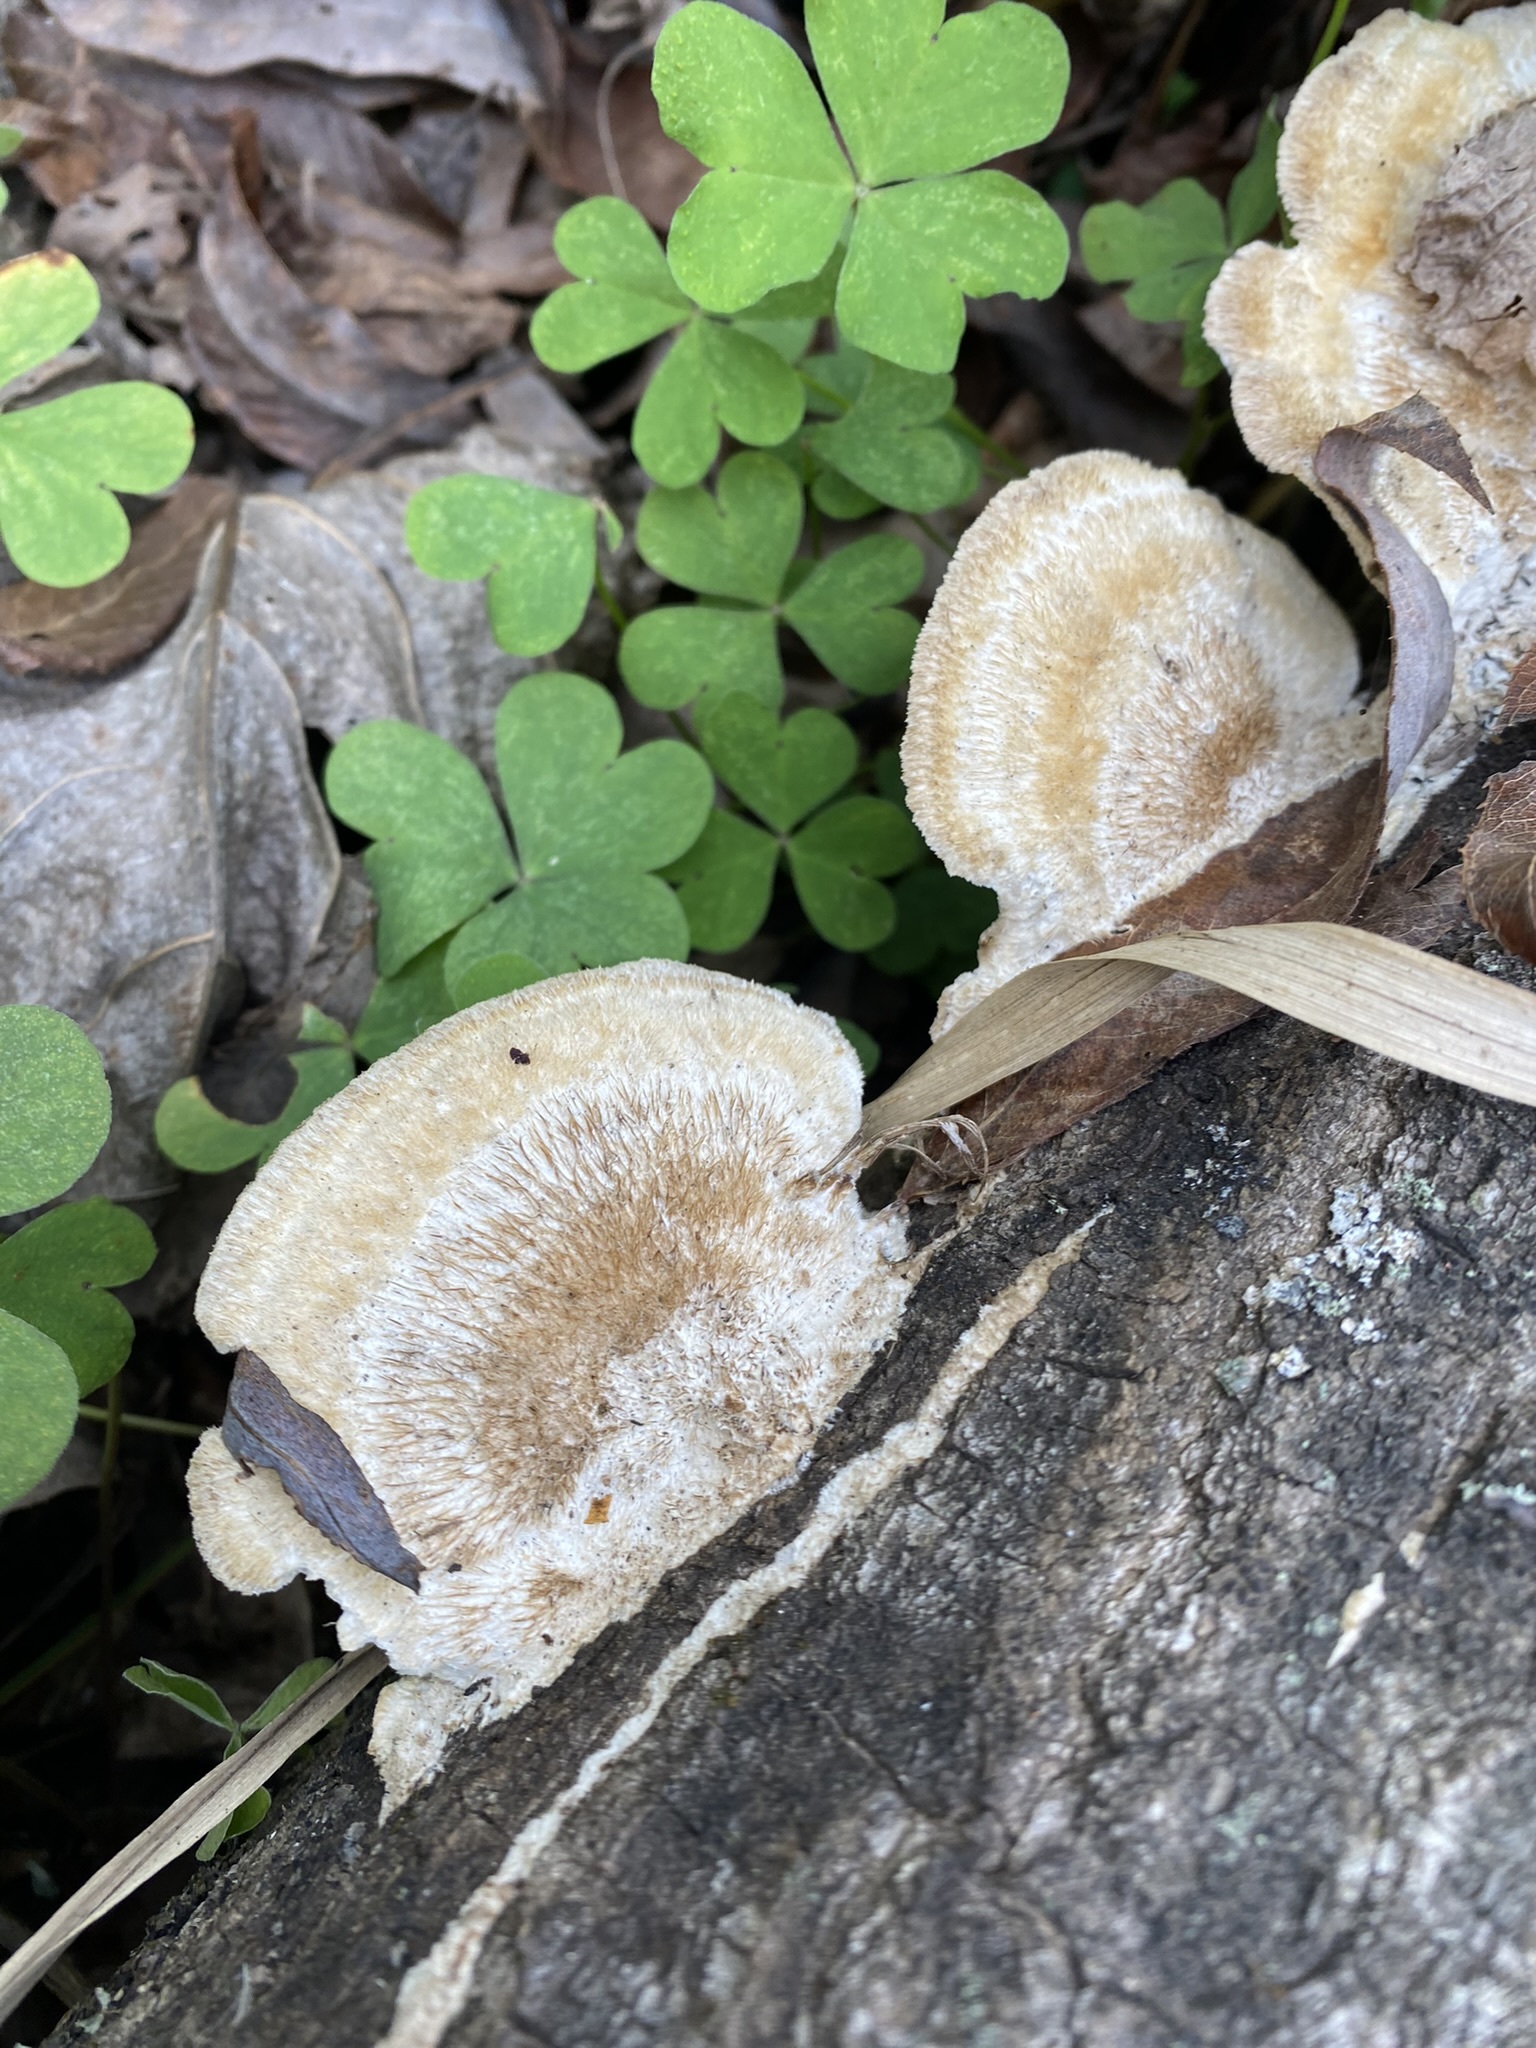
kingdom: Fungi
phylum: Basidiomycota
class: Agaricomycetes
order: Polyporales
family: Polyporaceae
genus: Trametes
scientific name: Trametes trogii
